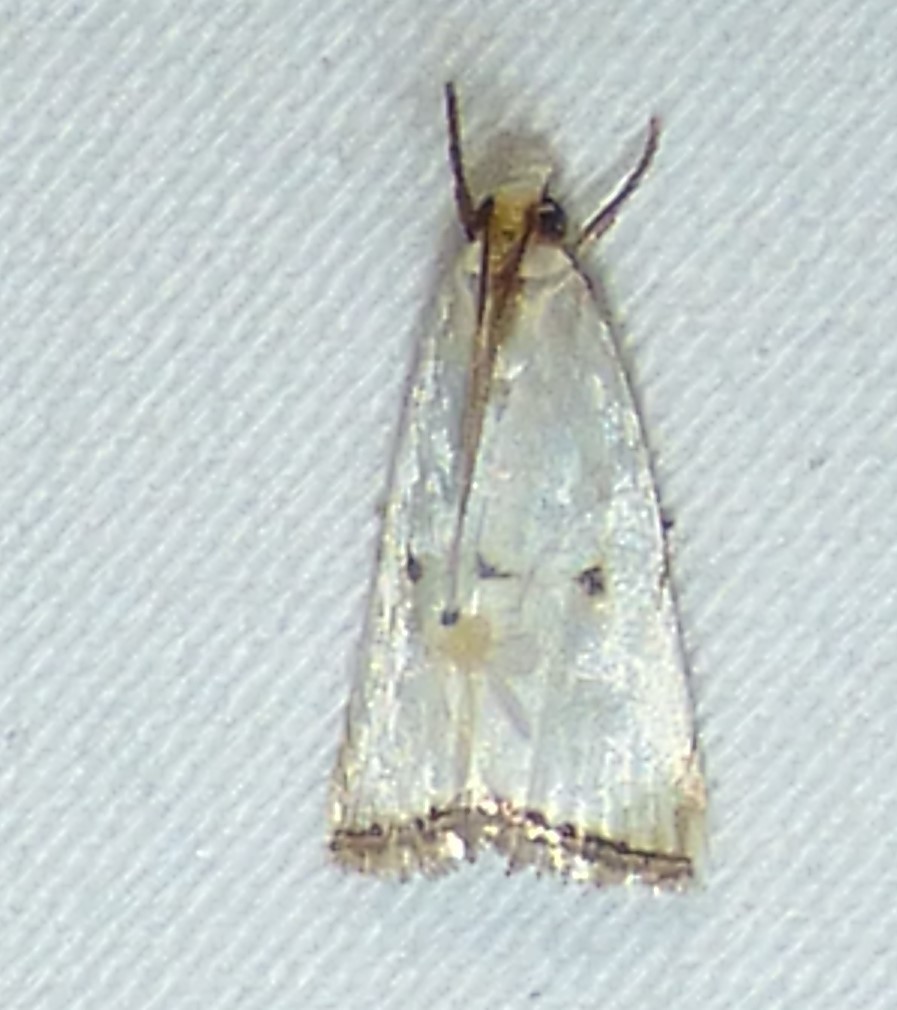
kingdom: Animalia
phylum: Arthropoda
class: Insecta
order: Lepidoptera
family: Crambidae
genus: Argyria
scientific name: Argyria pusillalis
